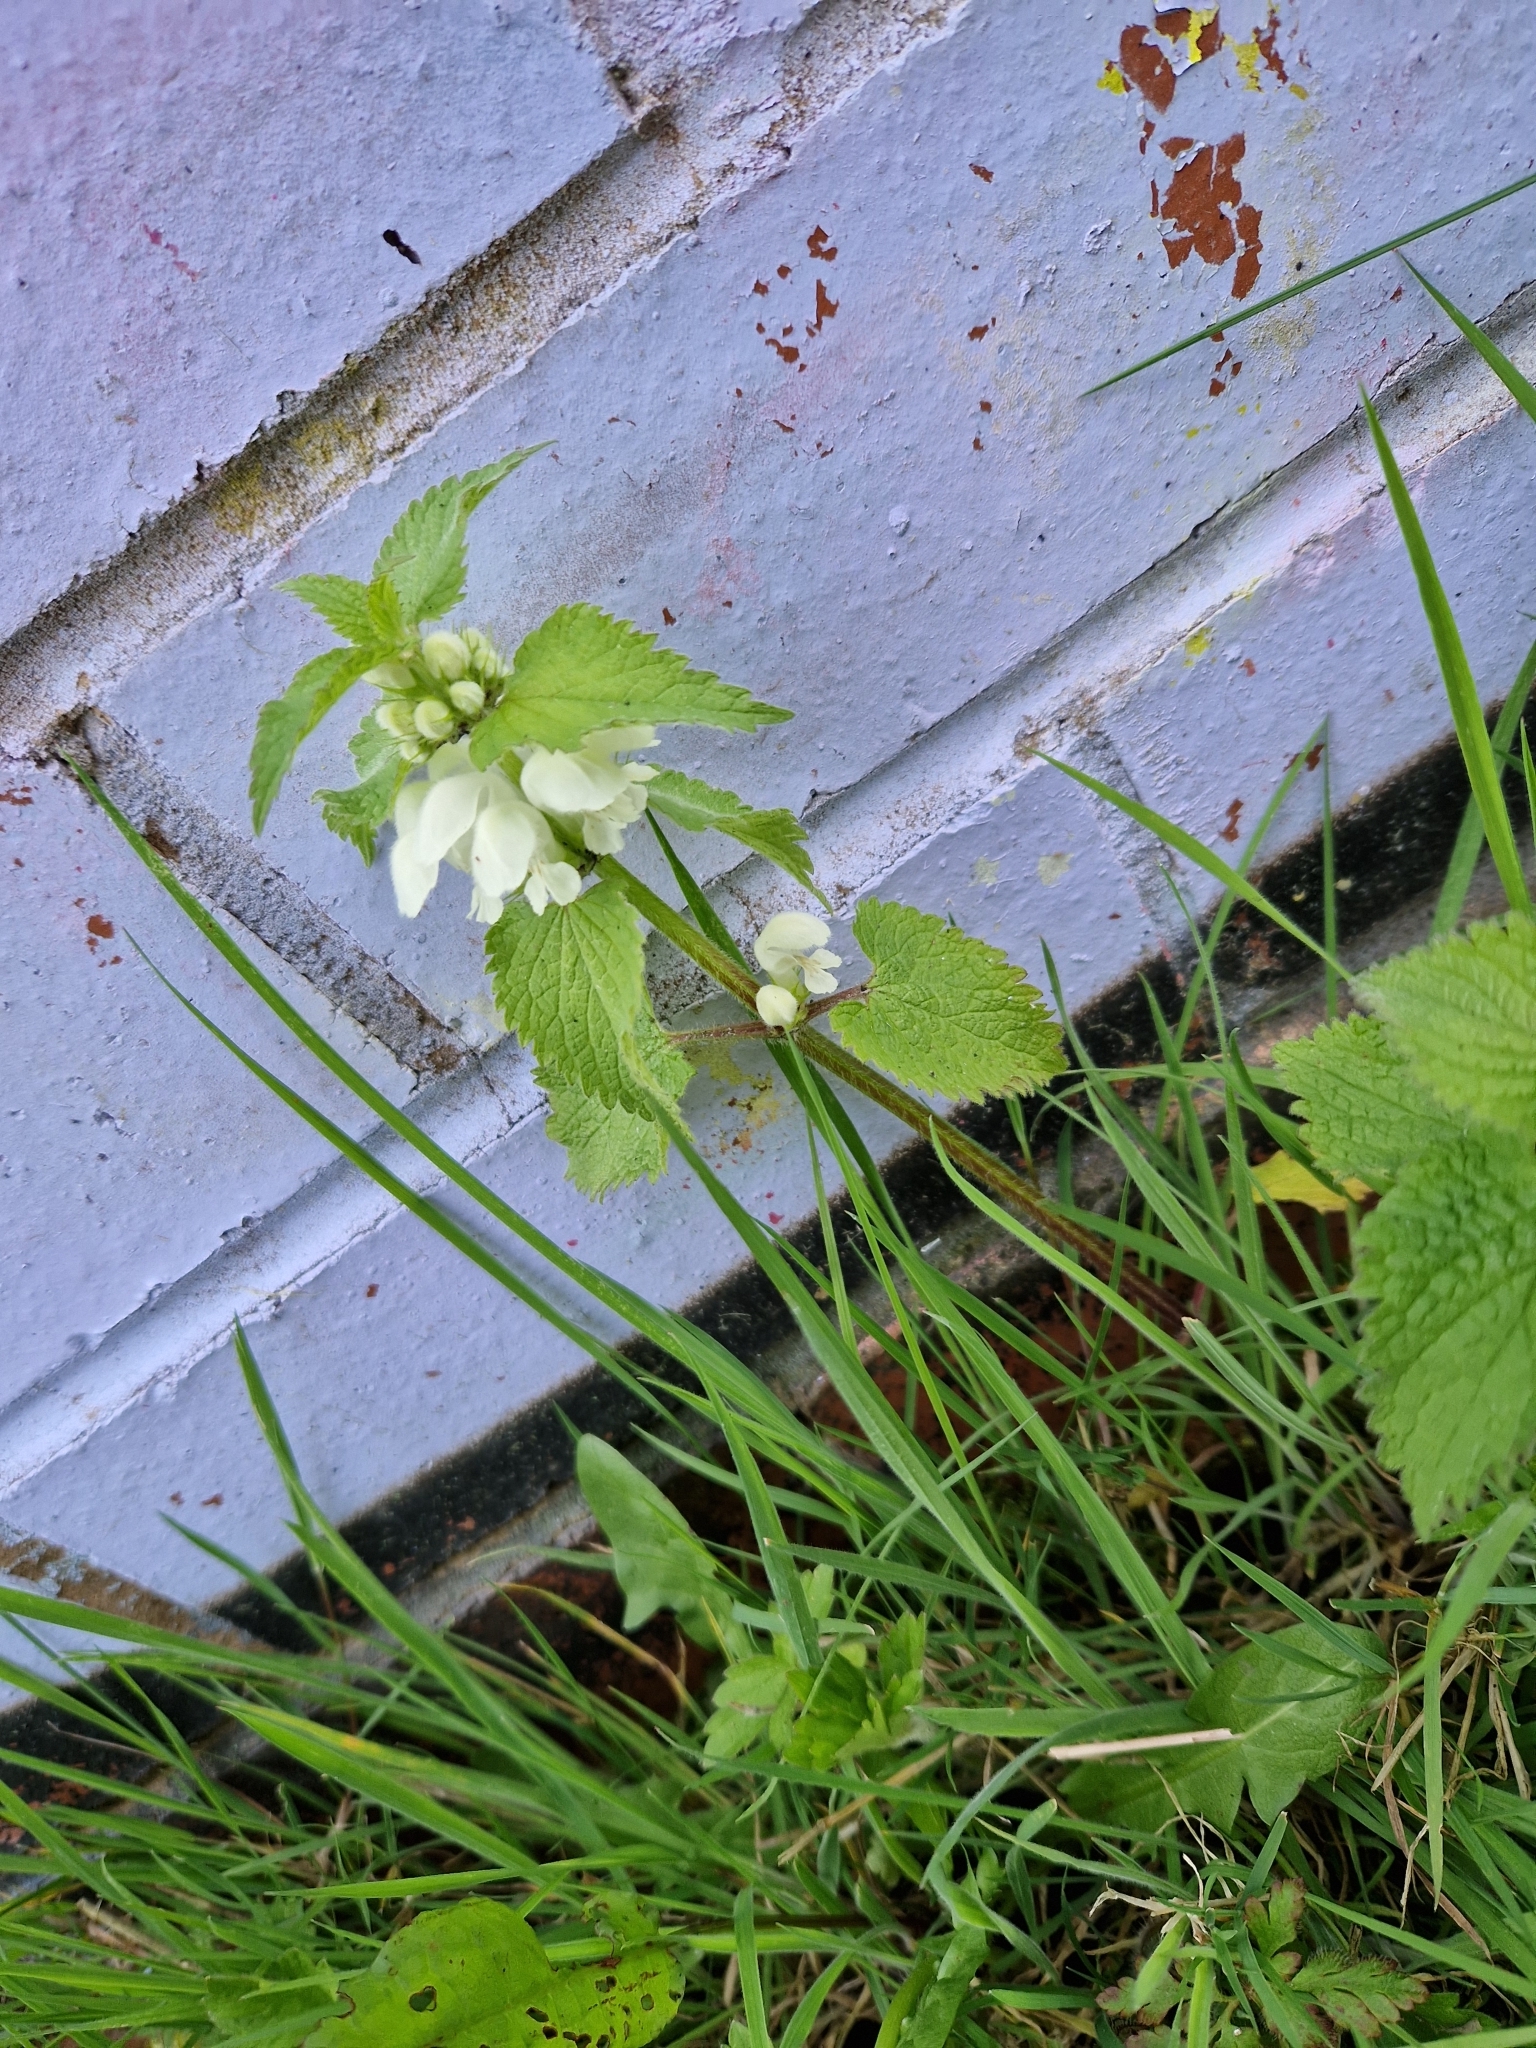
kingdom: Plantae
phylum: Tracheophyta
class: Magnoliopsida
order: Lamiales
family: Lamiaceae
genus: Lamium
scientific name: Lamium album
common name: White dead-nettle
